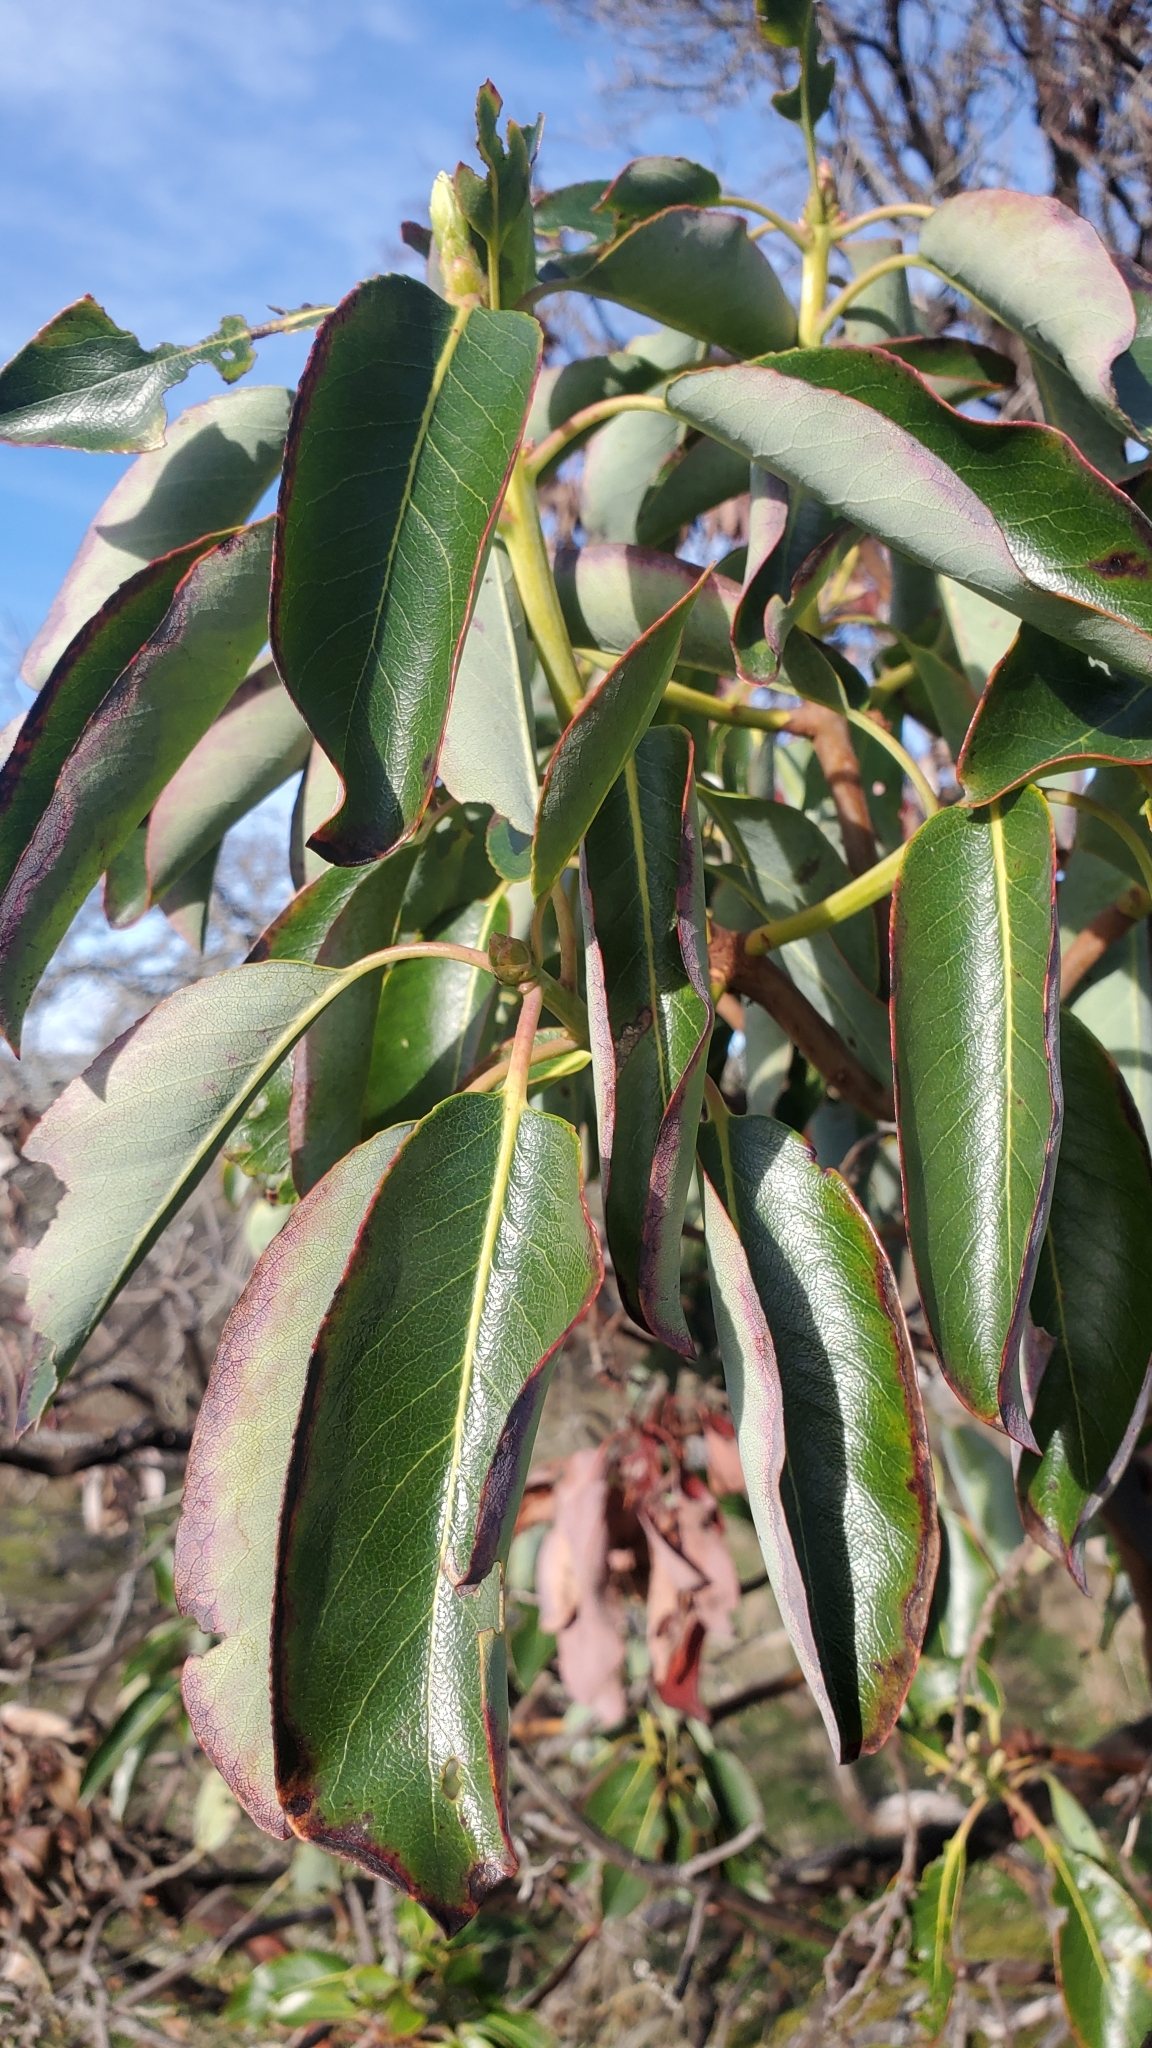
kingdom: Plantae
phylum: Tracheophyta
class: Magnoliopsida
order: Ericales
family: Ericaceae
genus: Arbutus
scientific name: Arbutus menziesii
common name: Pacific madrone
